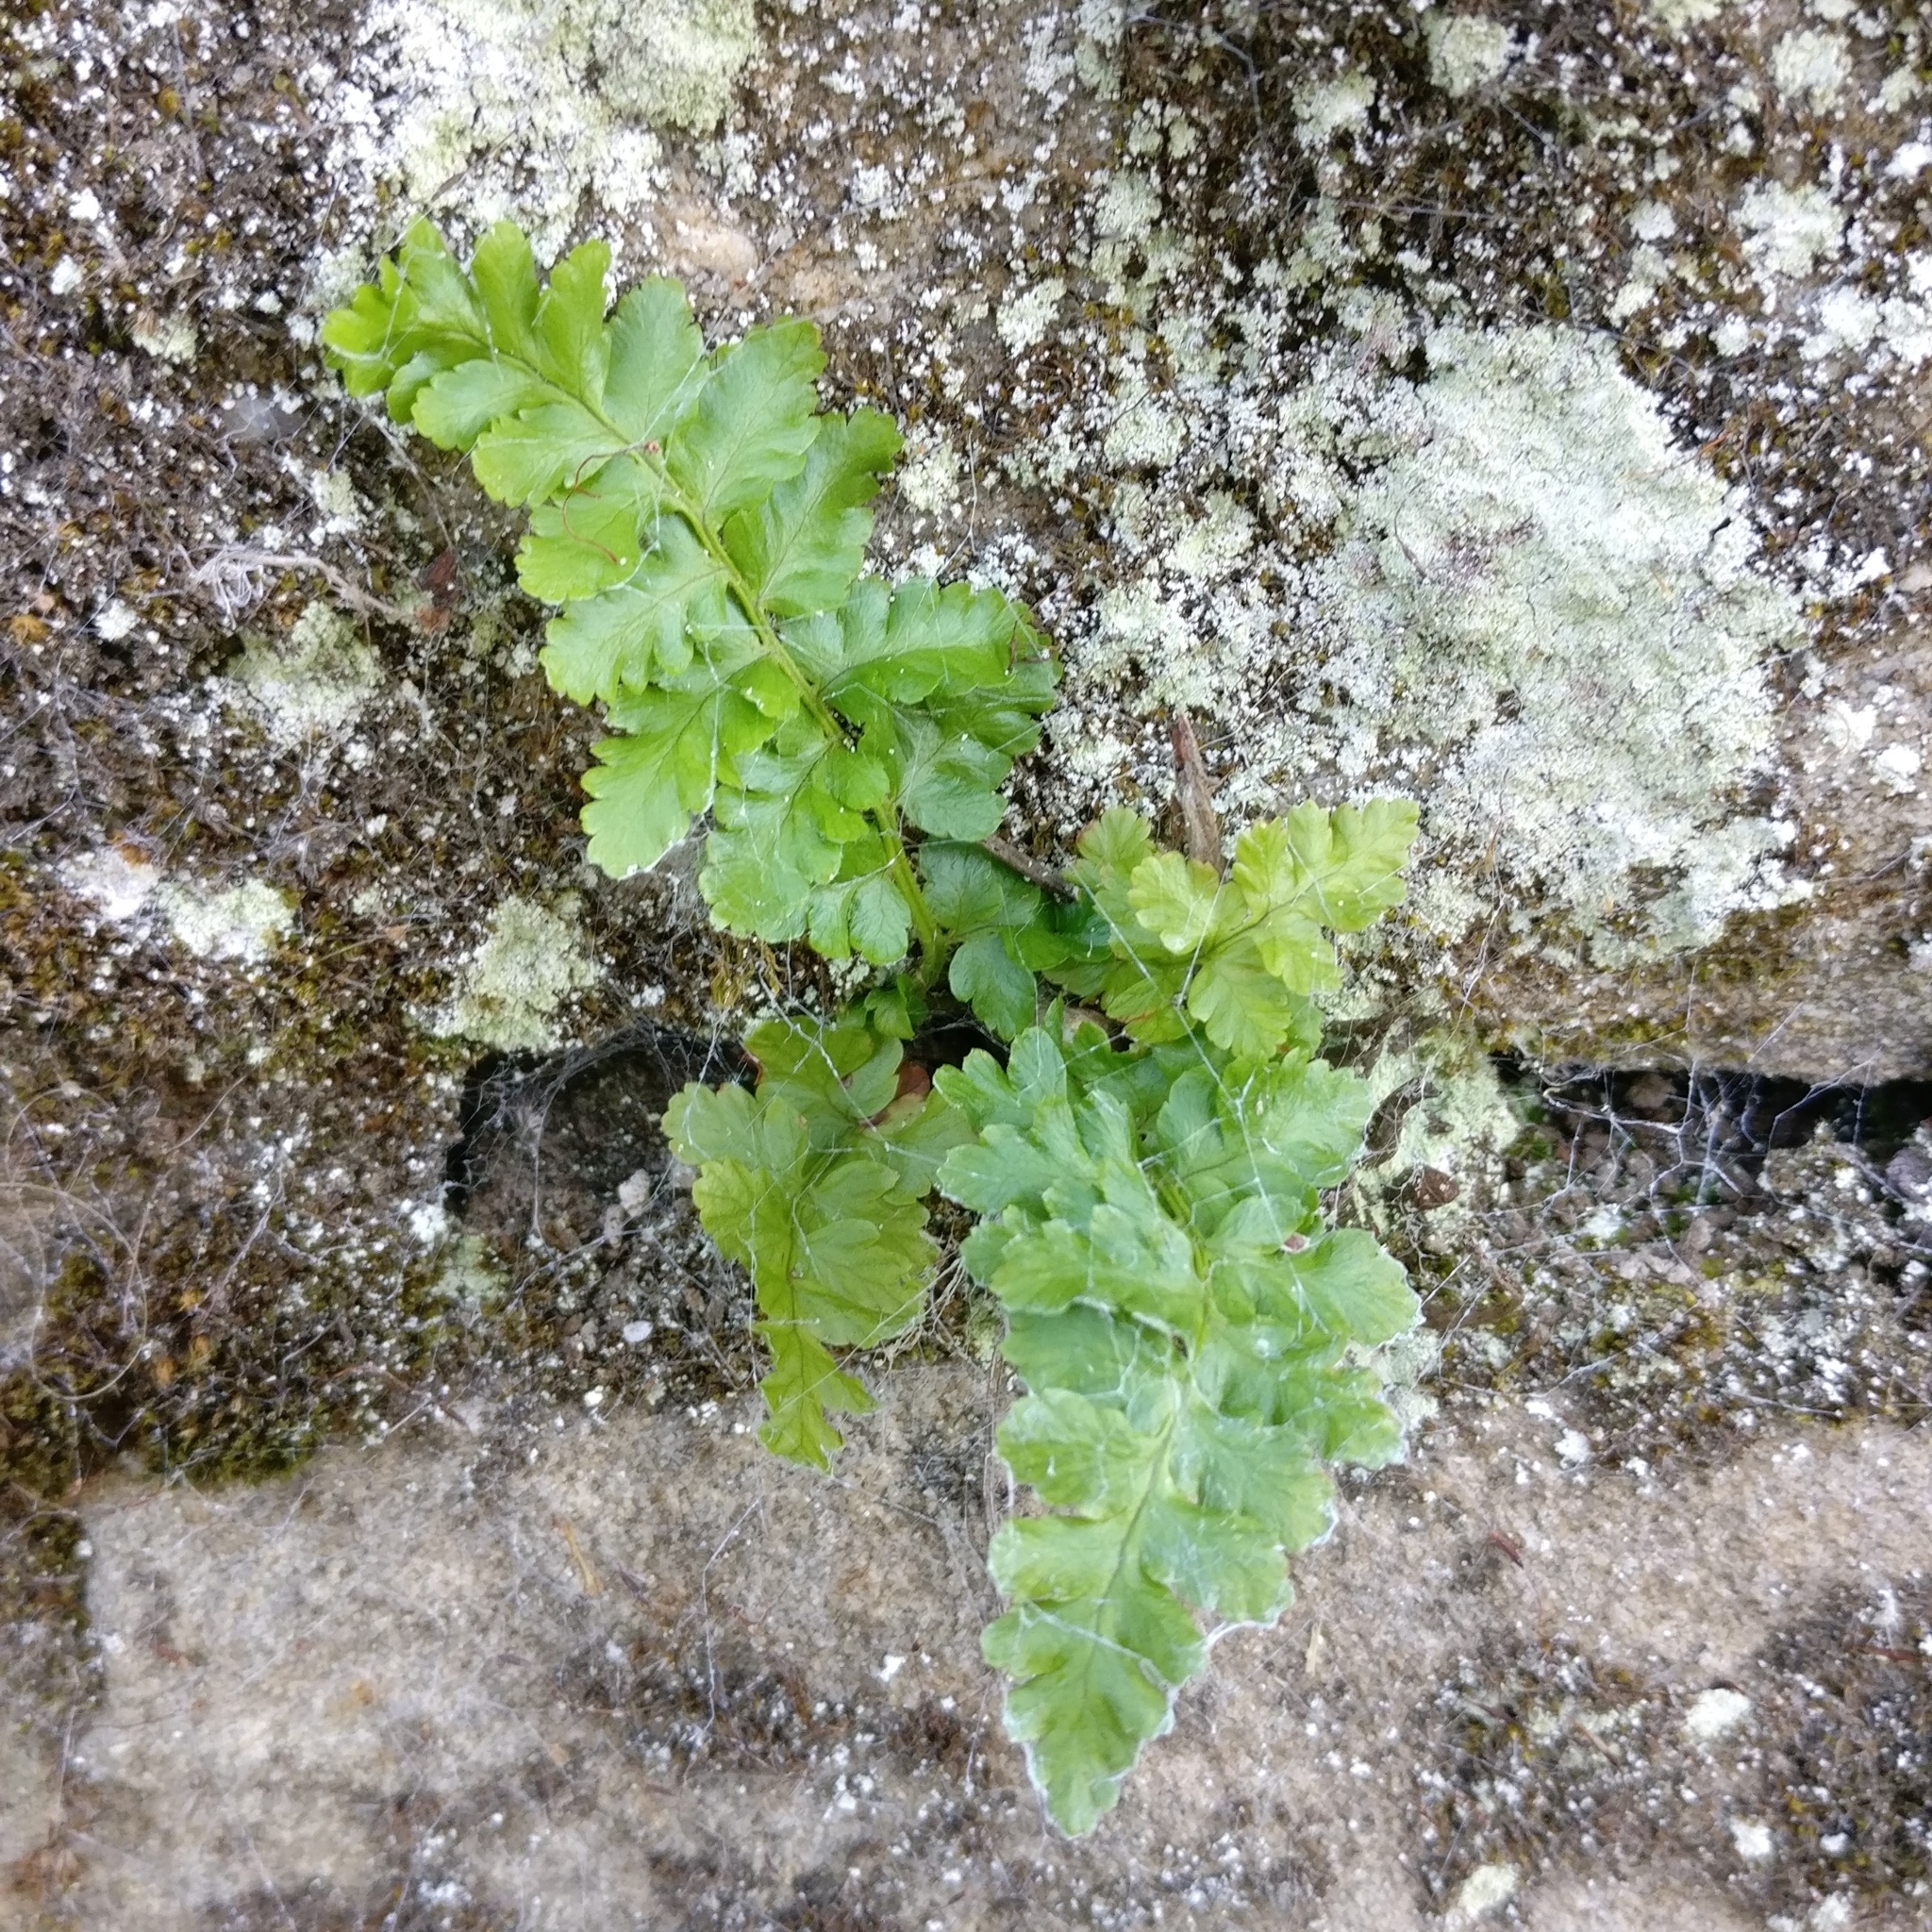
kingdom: Plantae
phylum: Tracheophyta
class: Polypodiopsida
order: Polypodiales
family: Aspleniaceae
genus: Asplenium
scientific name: Asplenium adiantum-nigrum
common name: Black spleenwort
